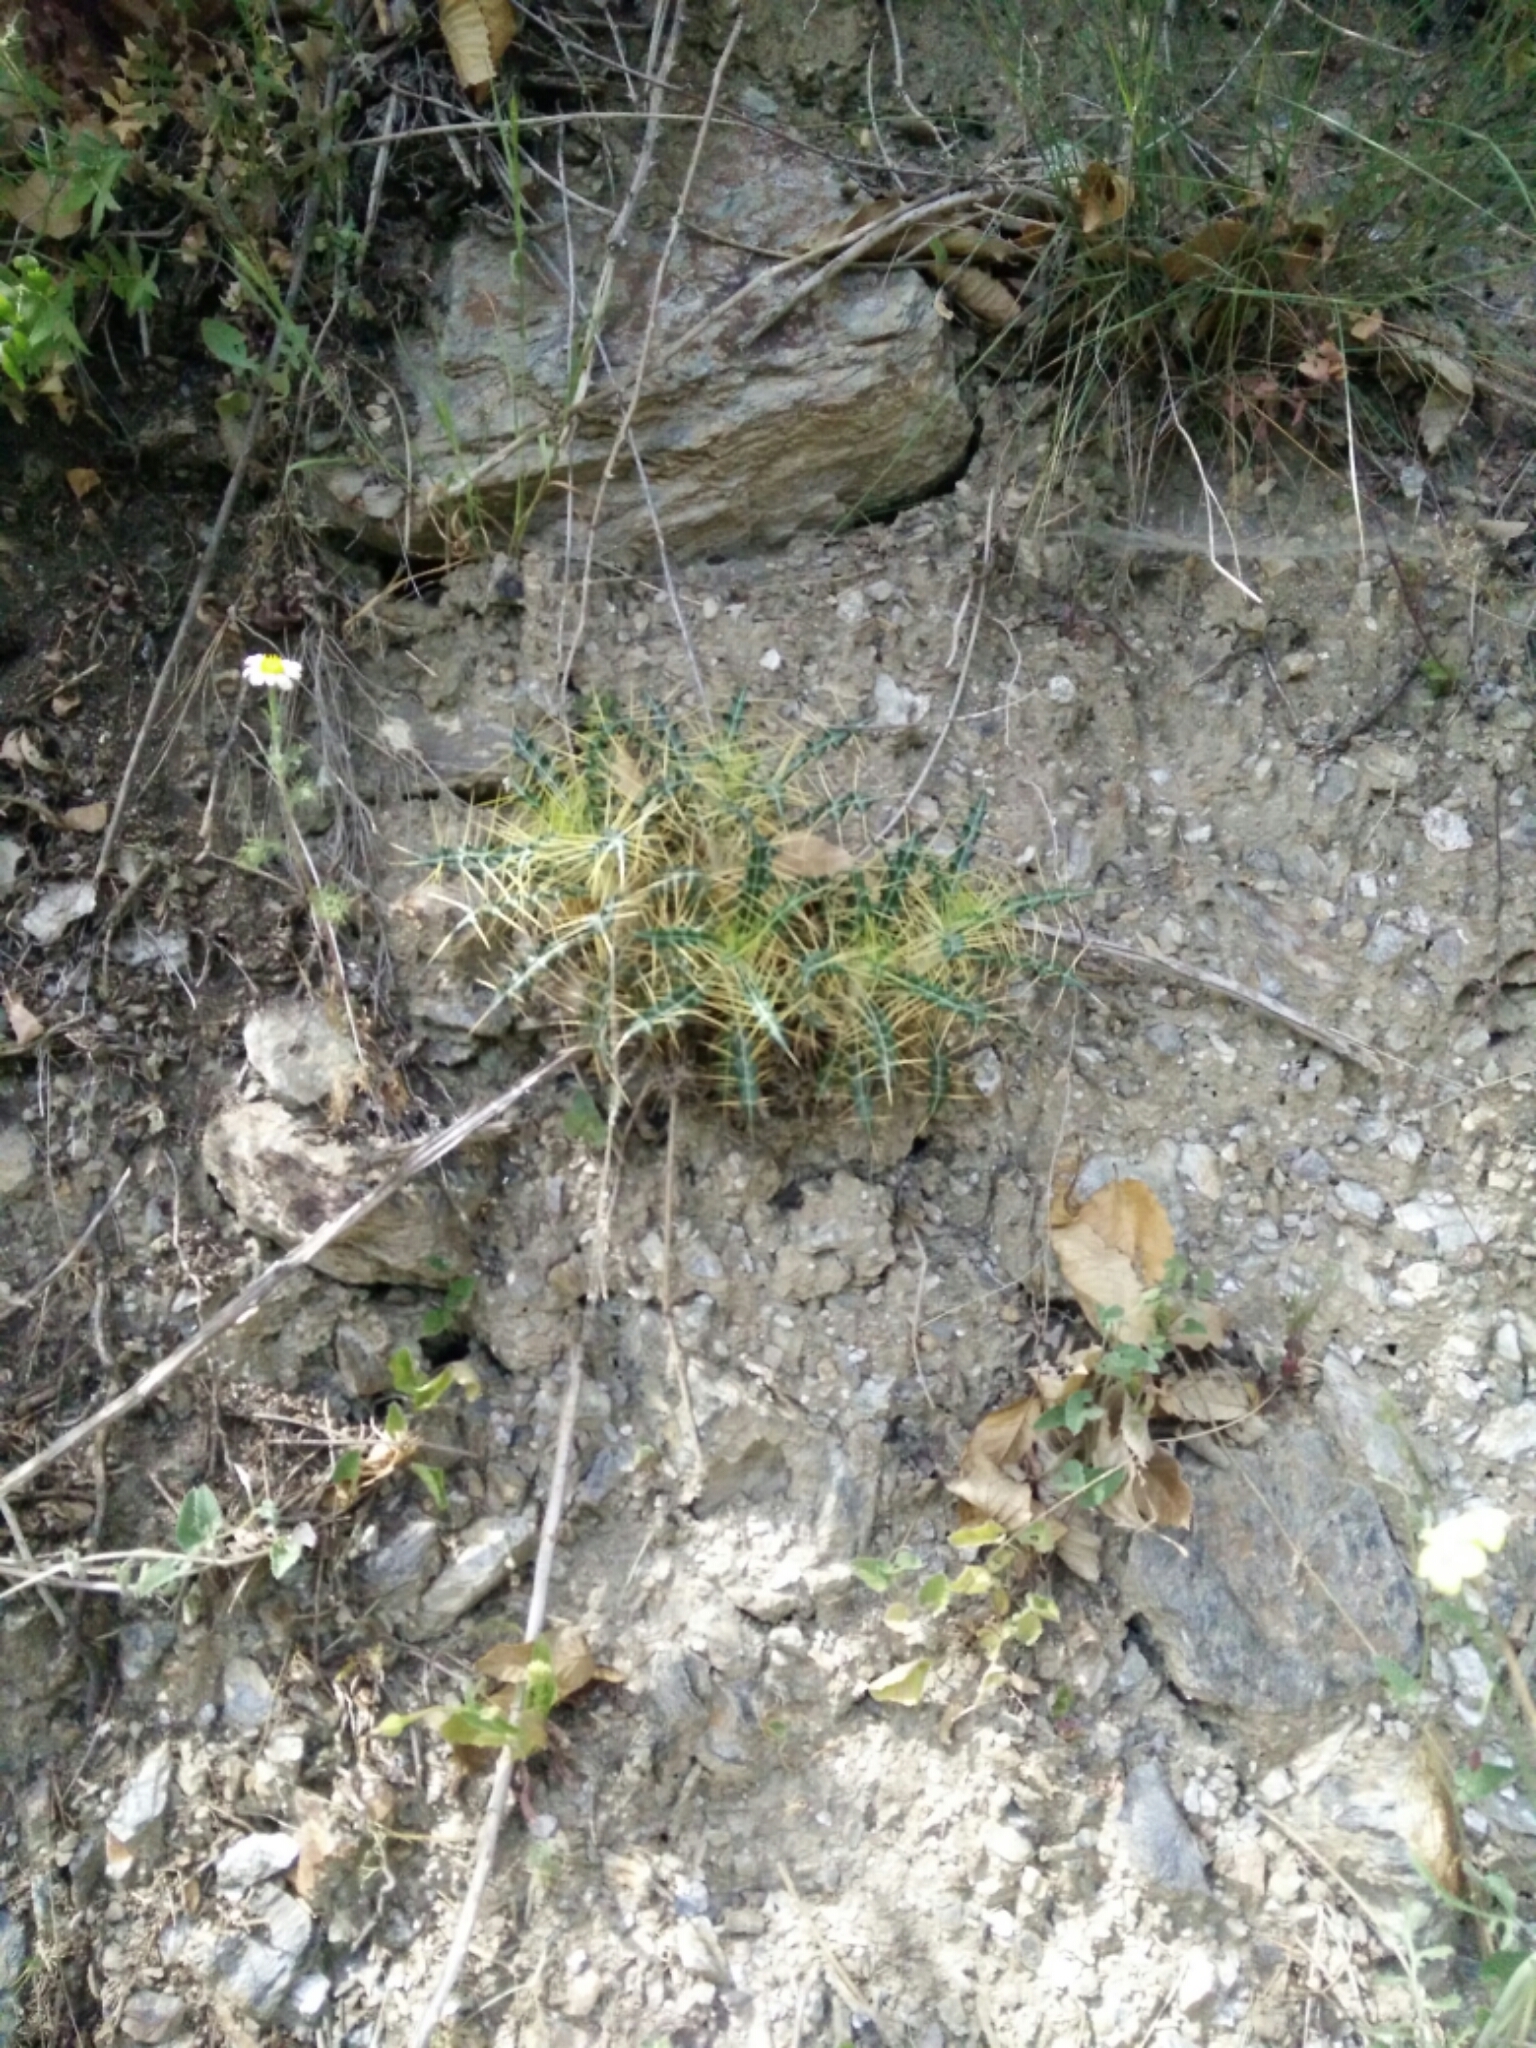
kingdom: Plantae
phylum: Tracheophyta
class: Magnoliopsida
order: Asterales
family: Asteraceae
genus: Ptilostemon
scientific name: Ptilostemon hispanicus
